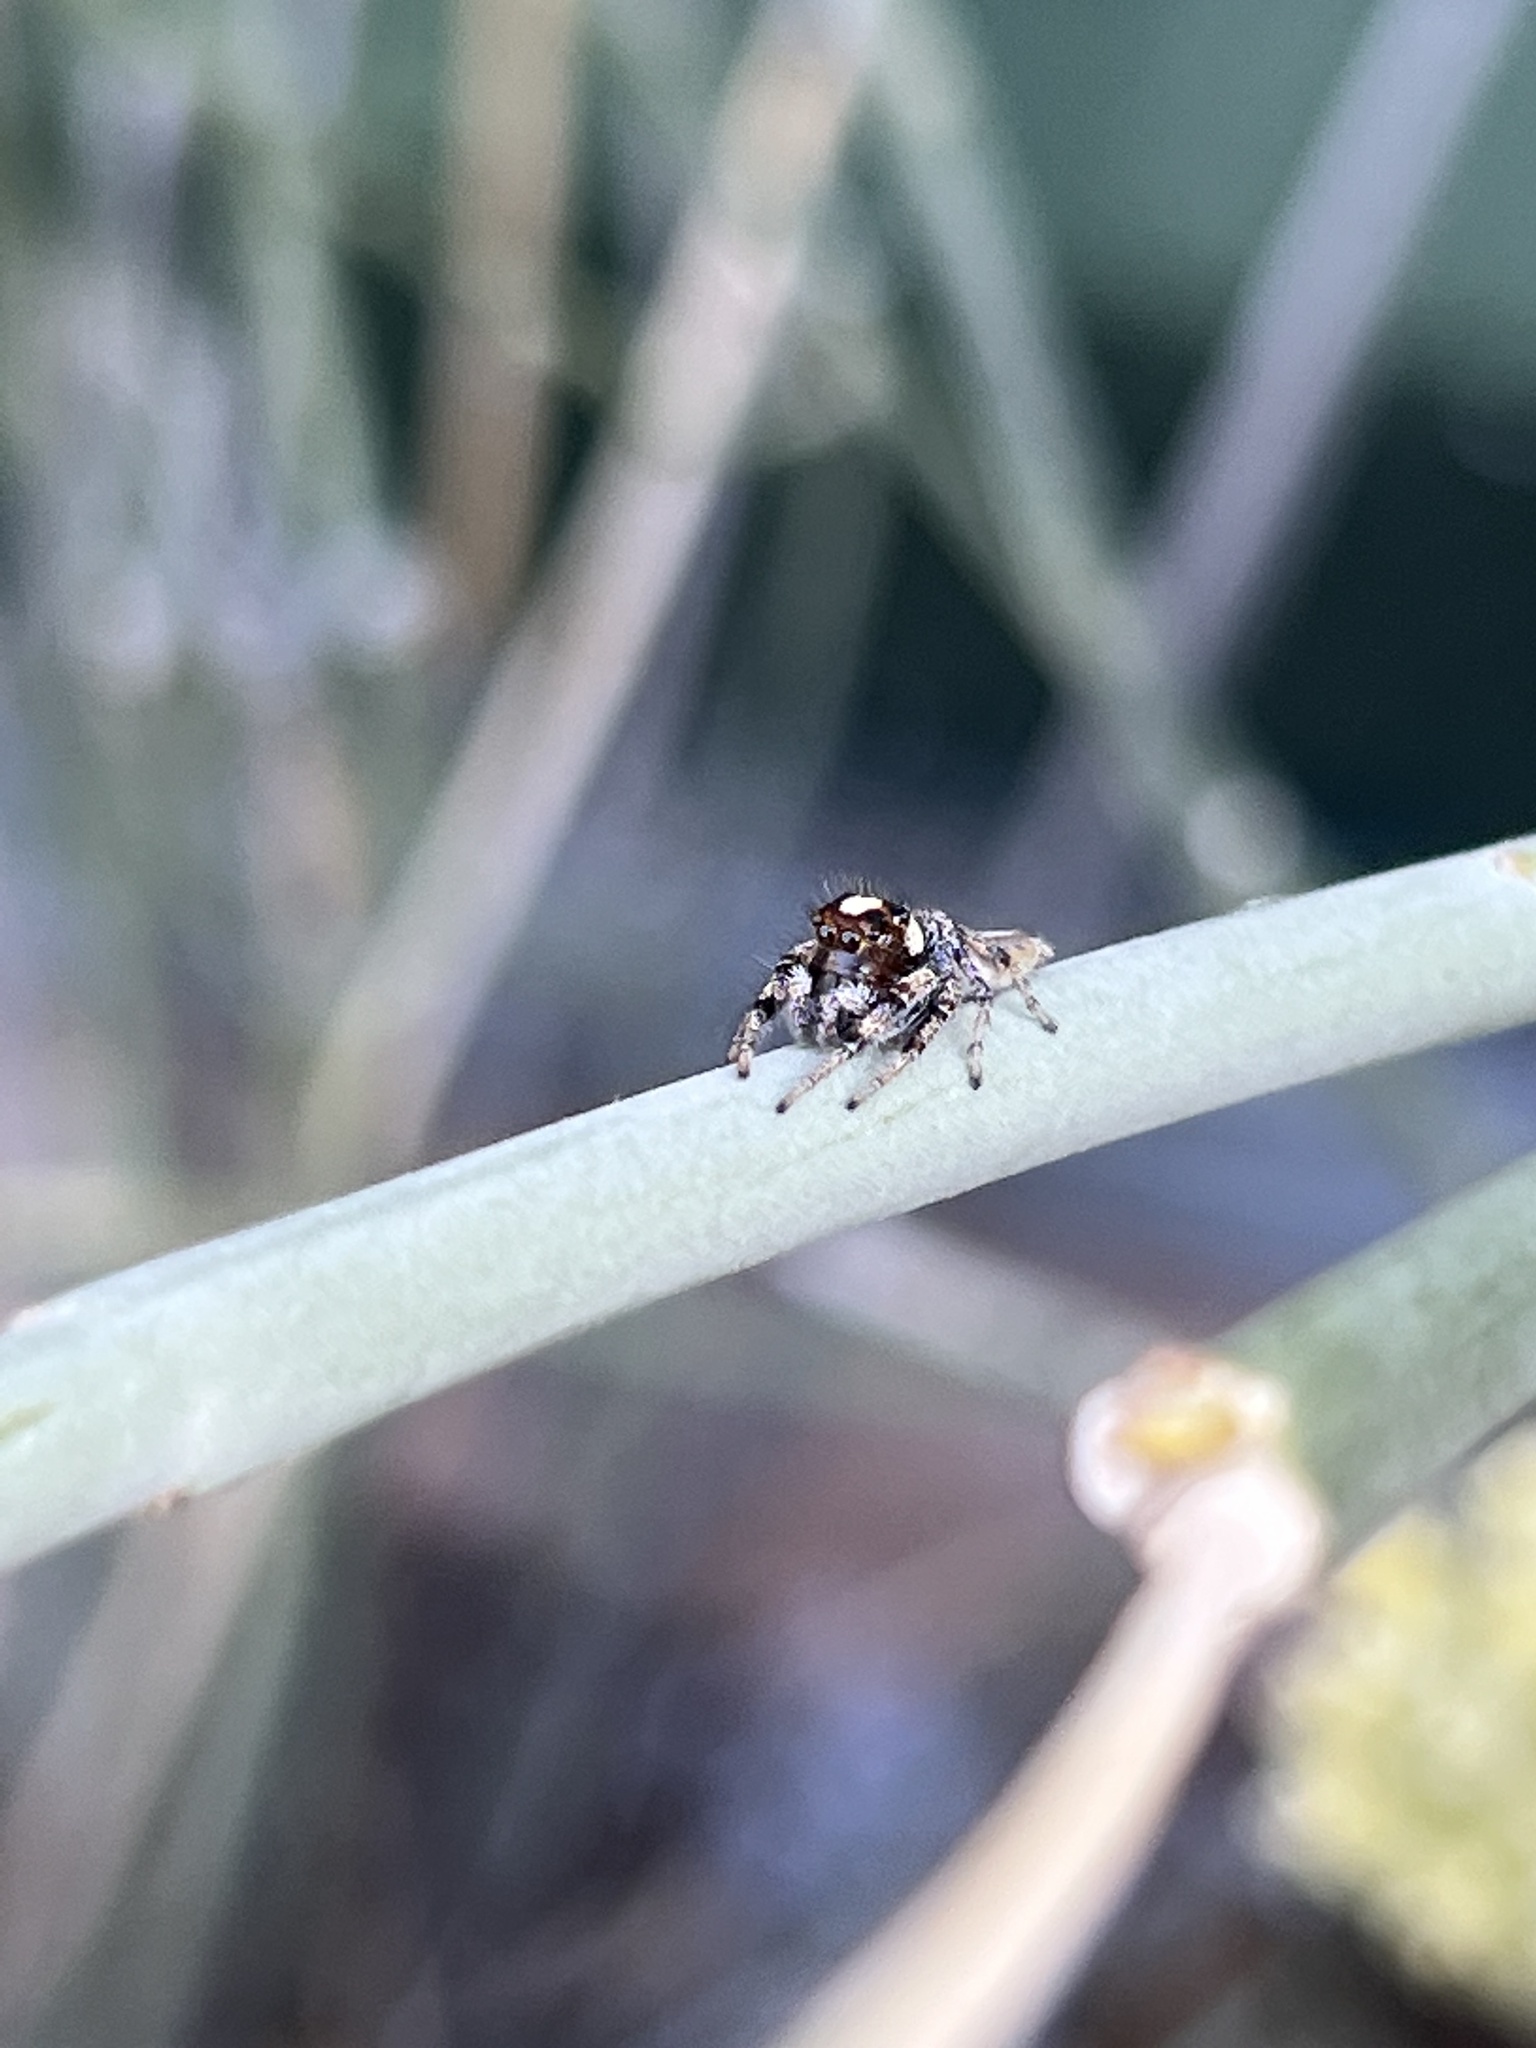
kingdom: Animalia
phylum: Arthropoda
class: Arachnida
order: Araneae
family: Salticidae
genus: Colonus
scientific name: Colonus hesperus
